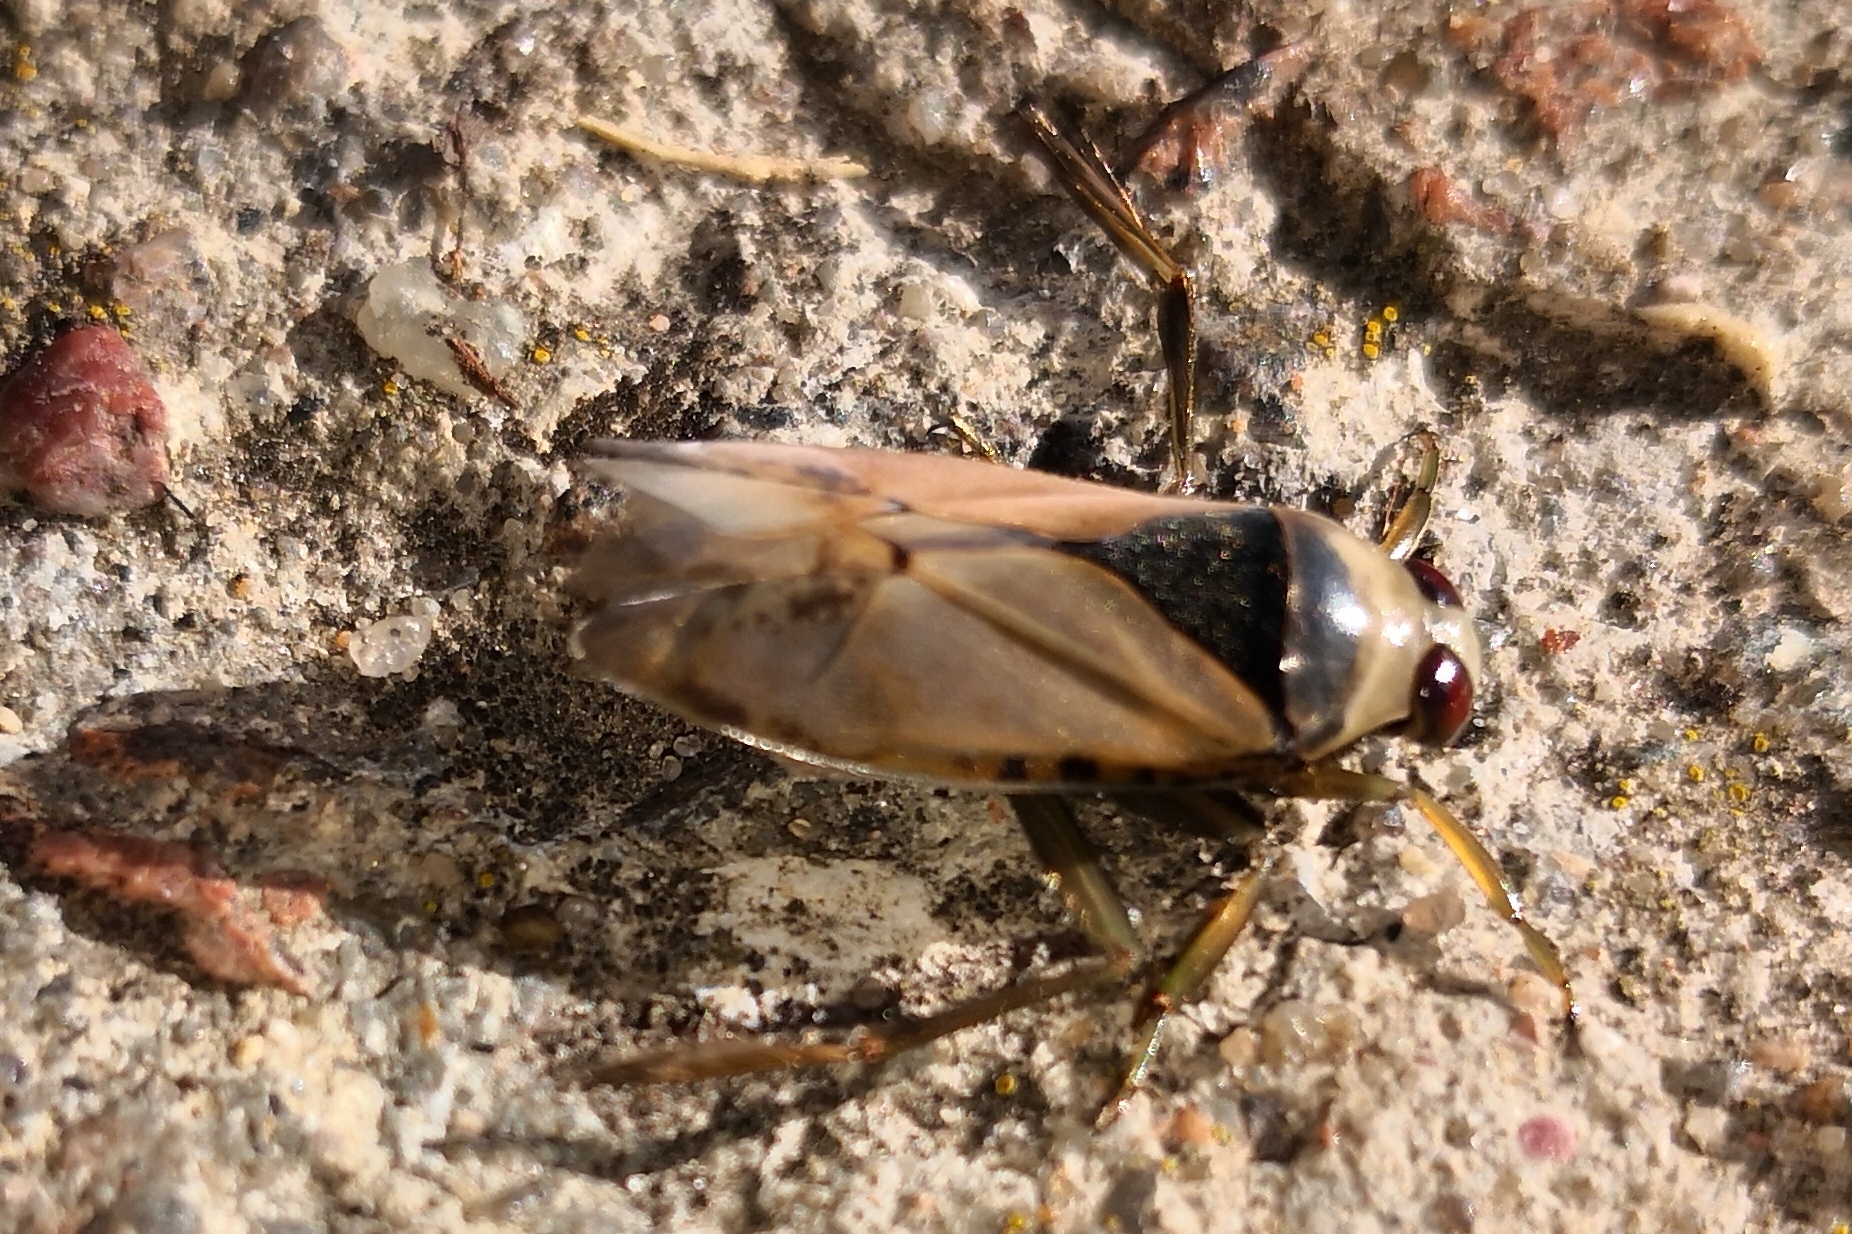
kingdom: Animalia
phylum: Arthropoda
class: Insecta
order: Hemiptera
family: Notonectidae
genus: Notonecta
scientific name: Notonecta glauca
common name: Common water-boatman
